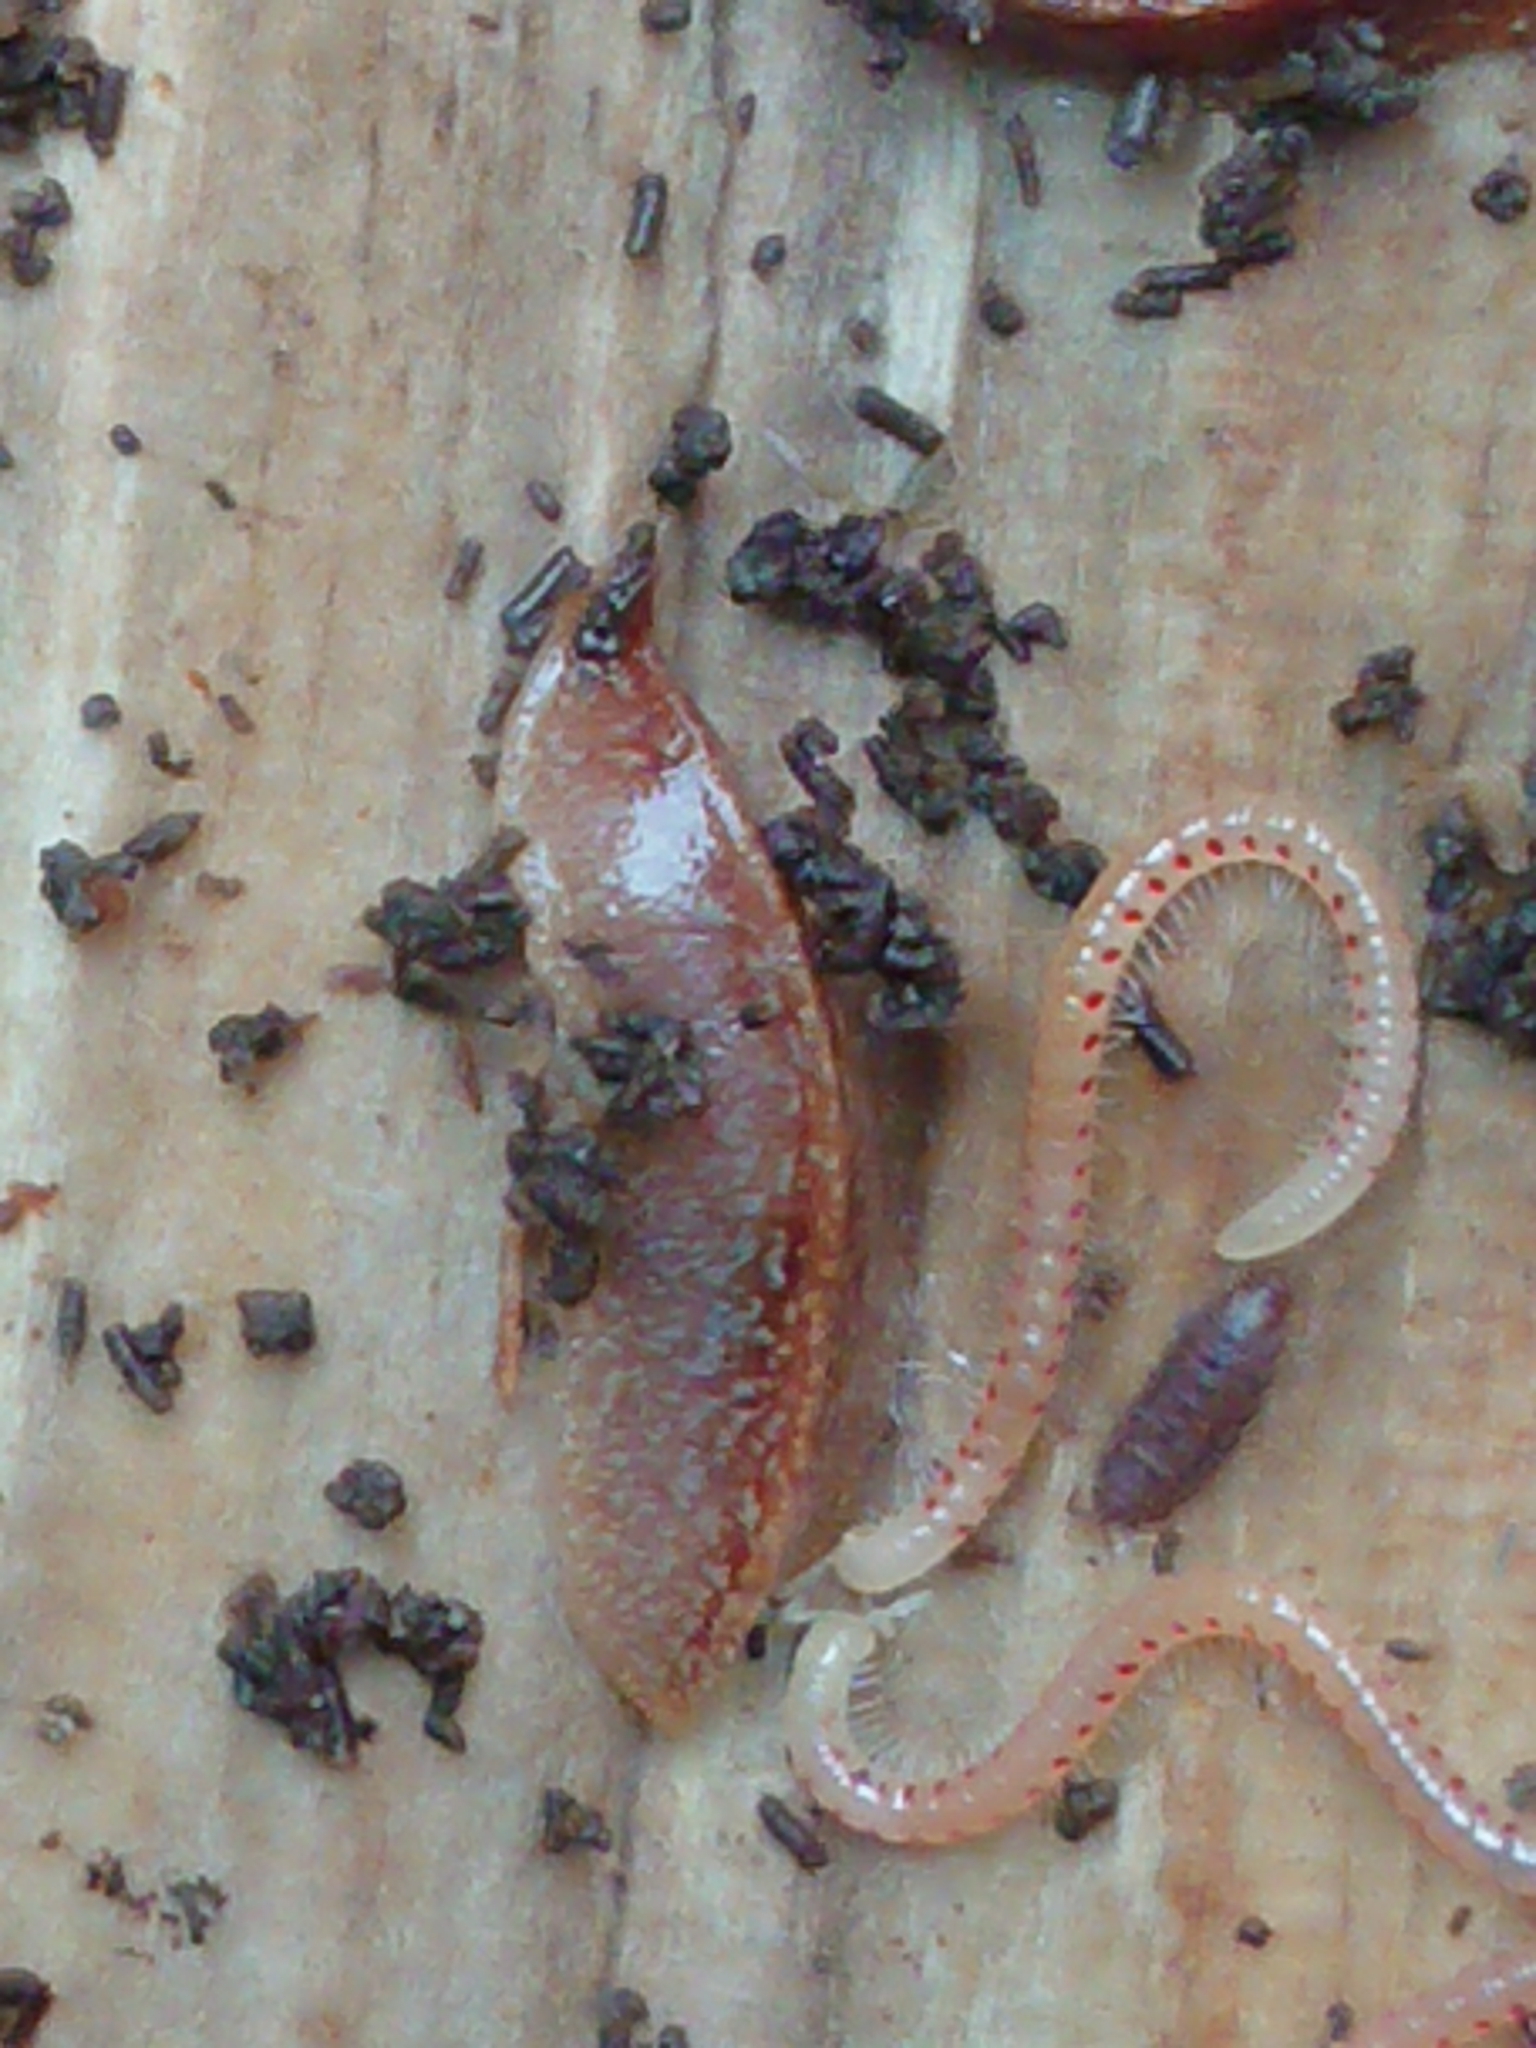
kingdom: Animalia
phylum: Arthropoda
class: Diplopoda
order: Julida
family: Blaniulidae
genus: Blaniulus
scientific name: Blaniulus guttulatus
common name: Spotted snake millipede
